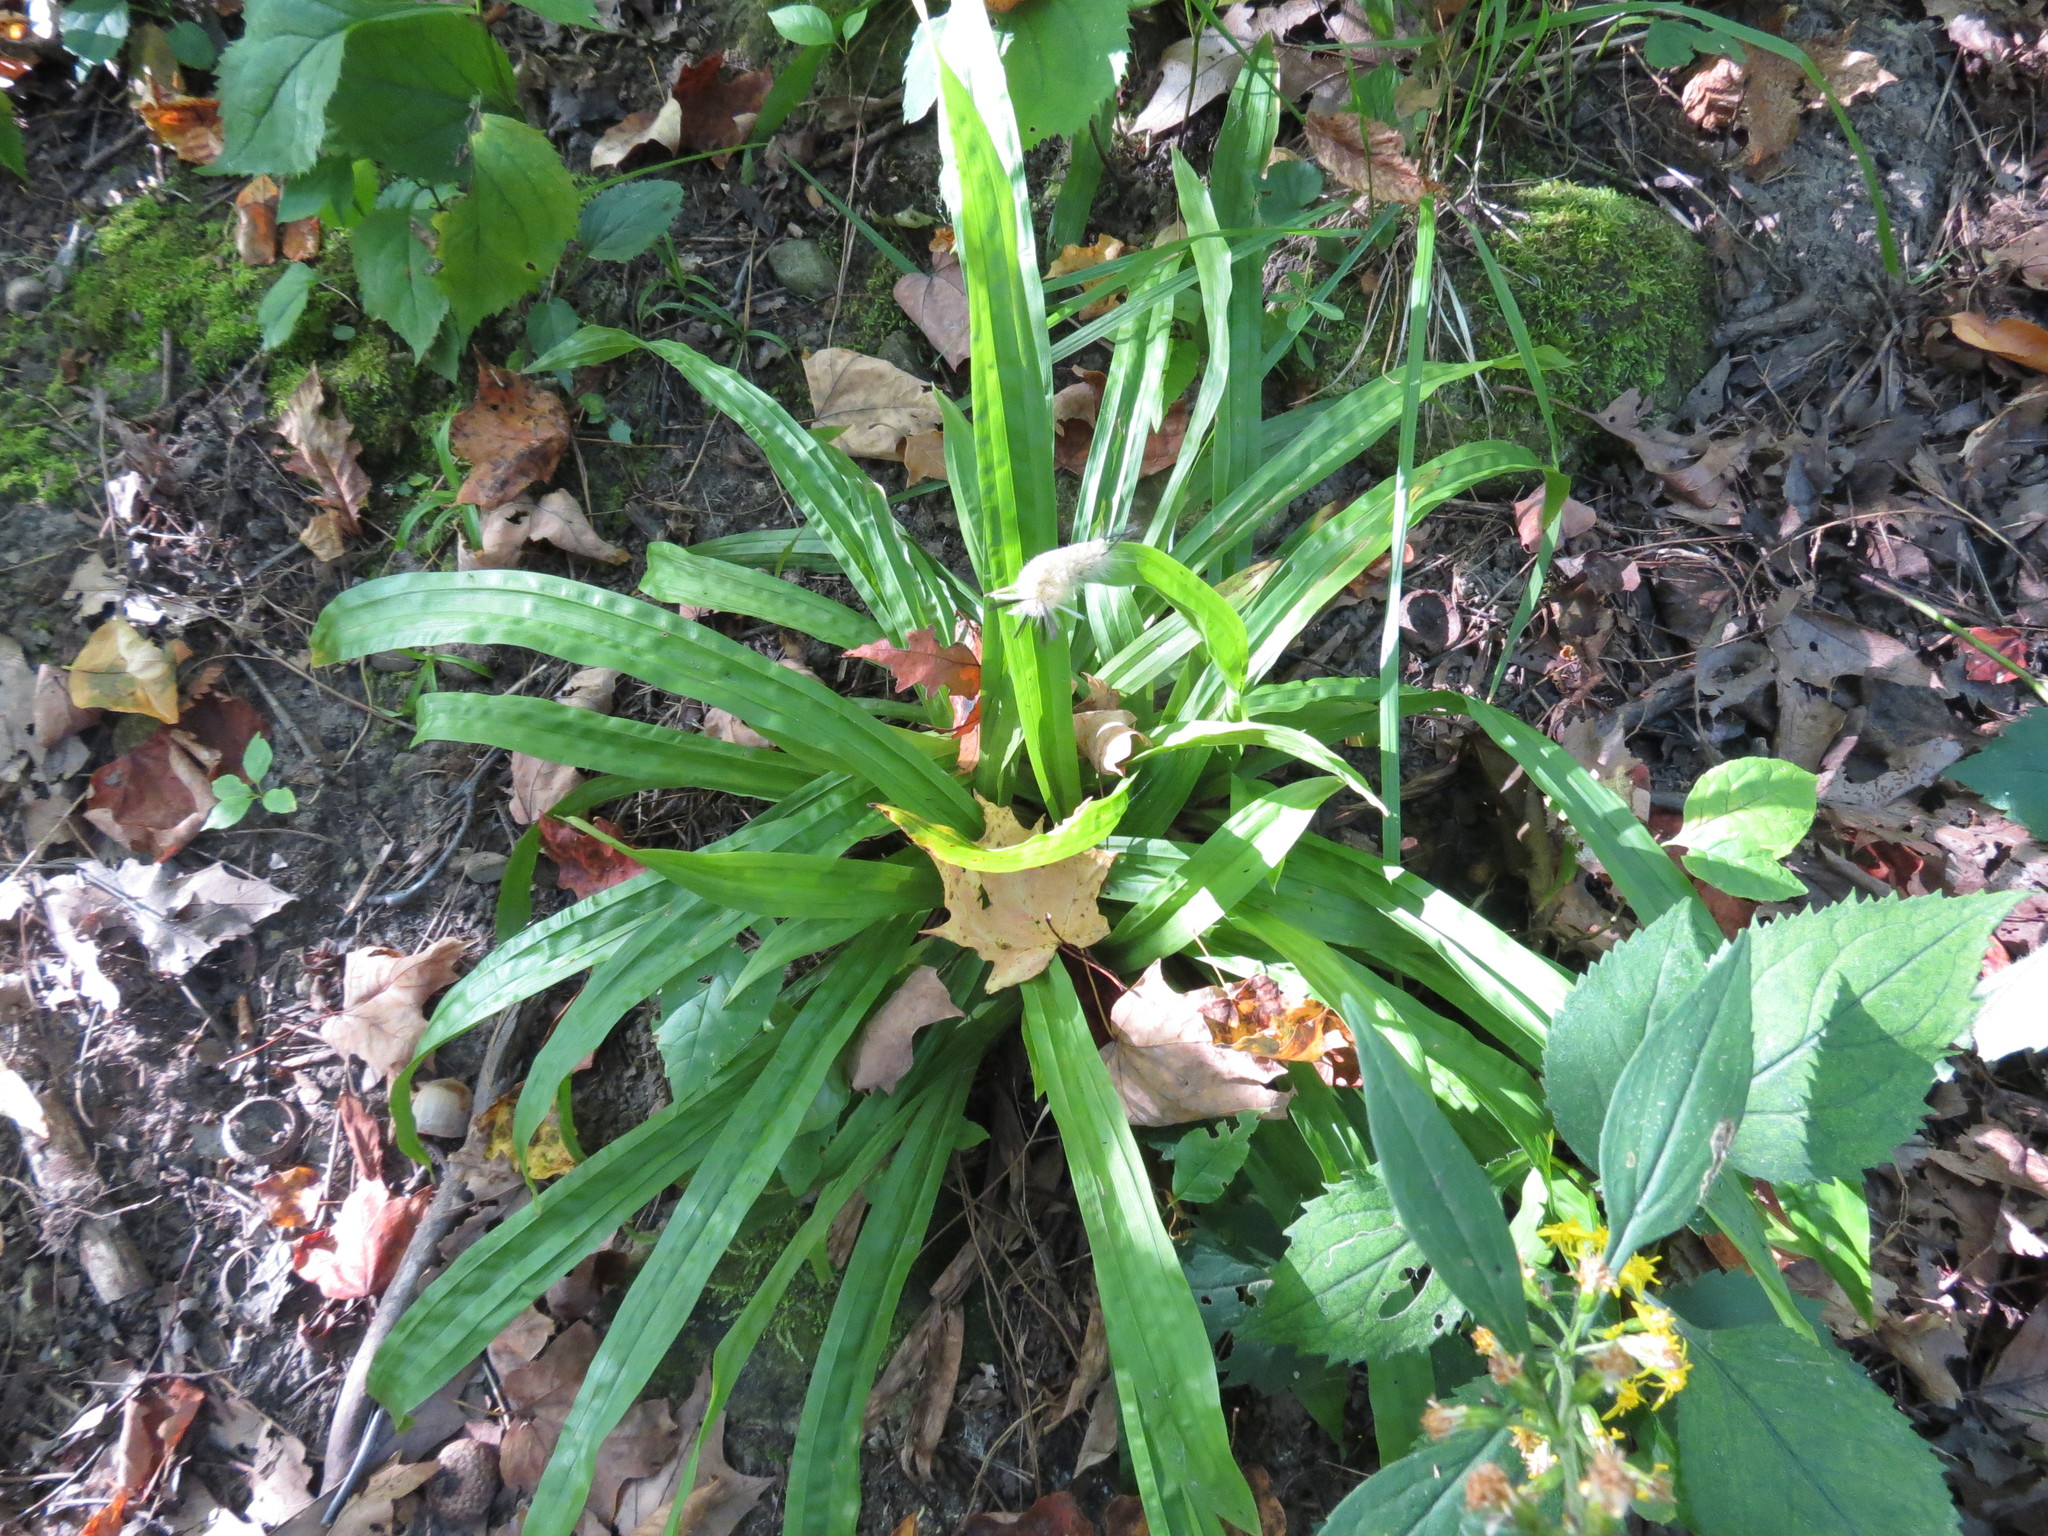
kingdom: Plantae
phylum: Tracheophyta
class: Liliopsida
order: Poales
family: Cyperaceae
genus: Carex
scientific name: Carex plantaginea
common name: Plantain-leaved sedge
